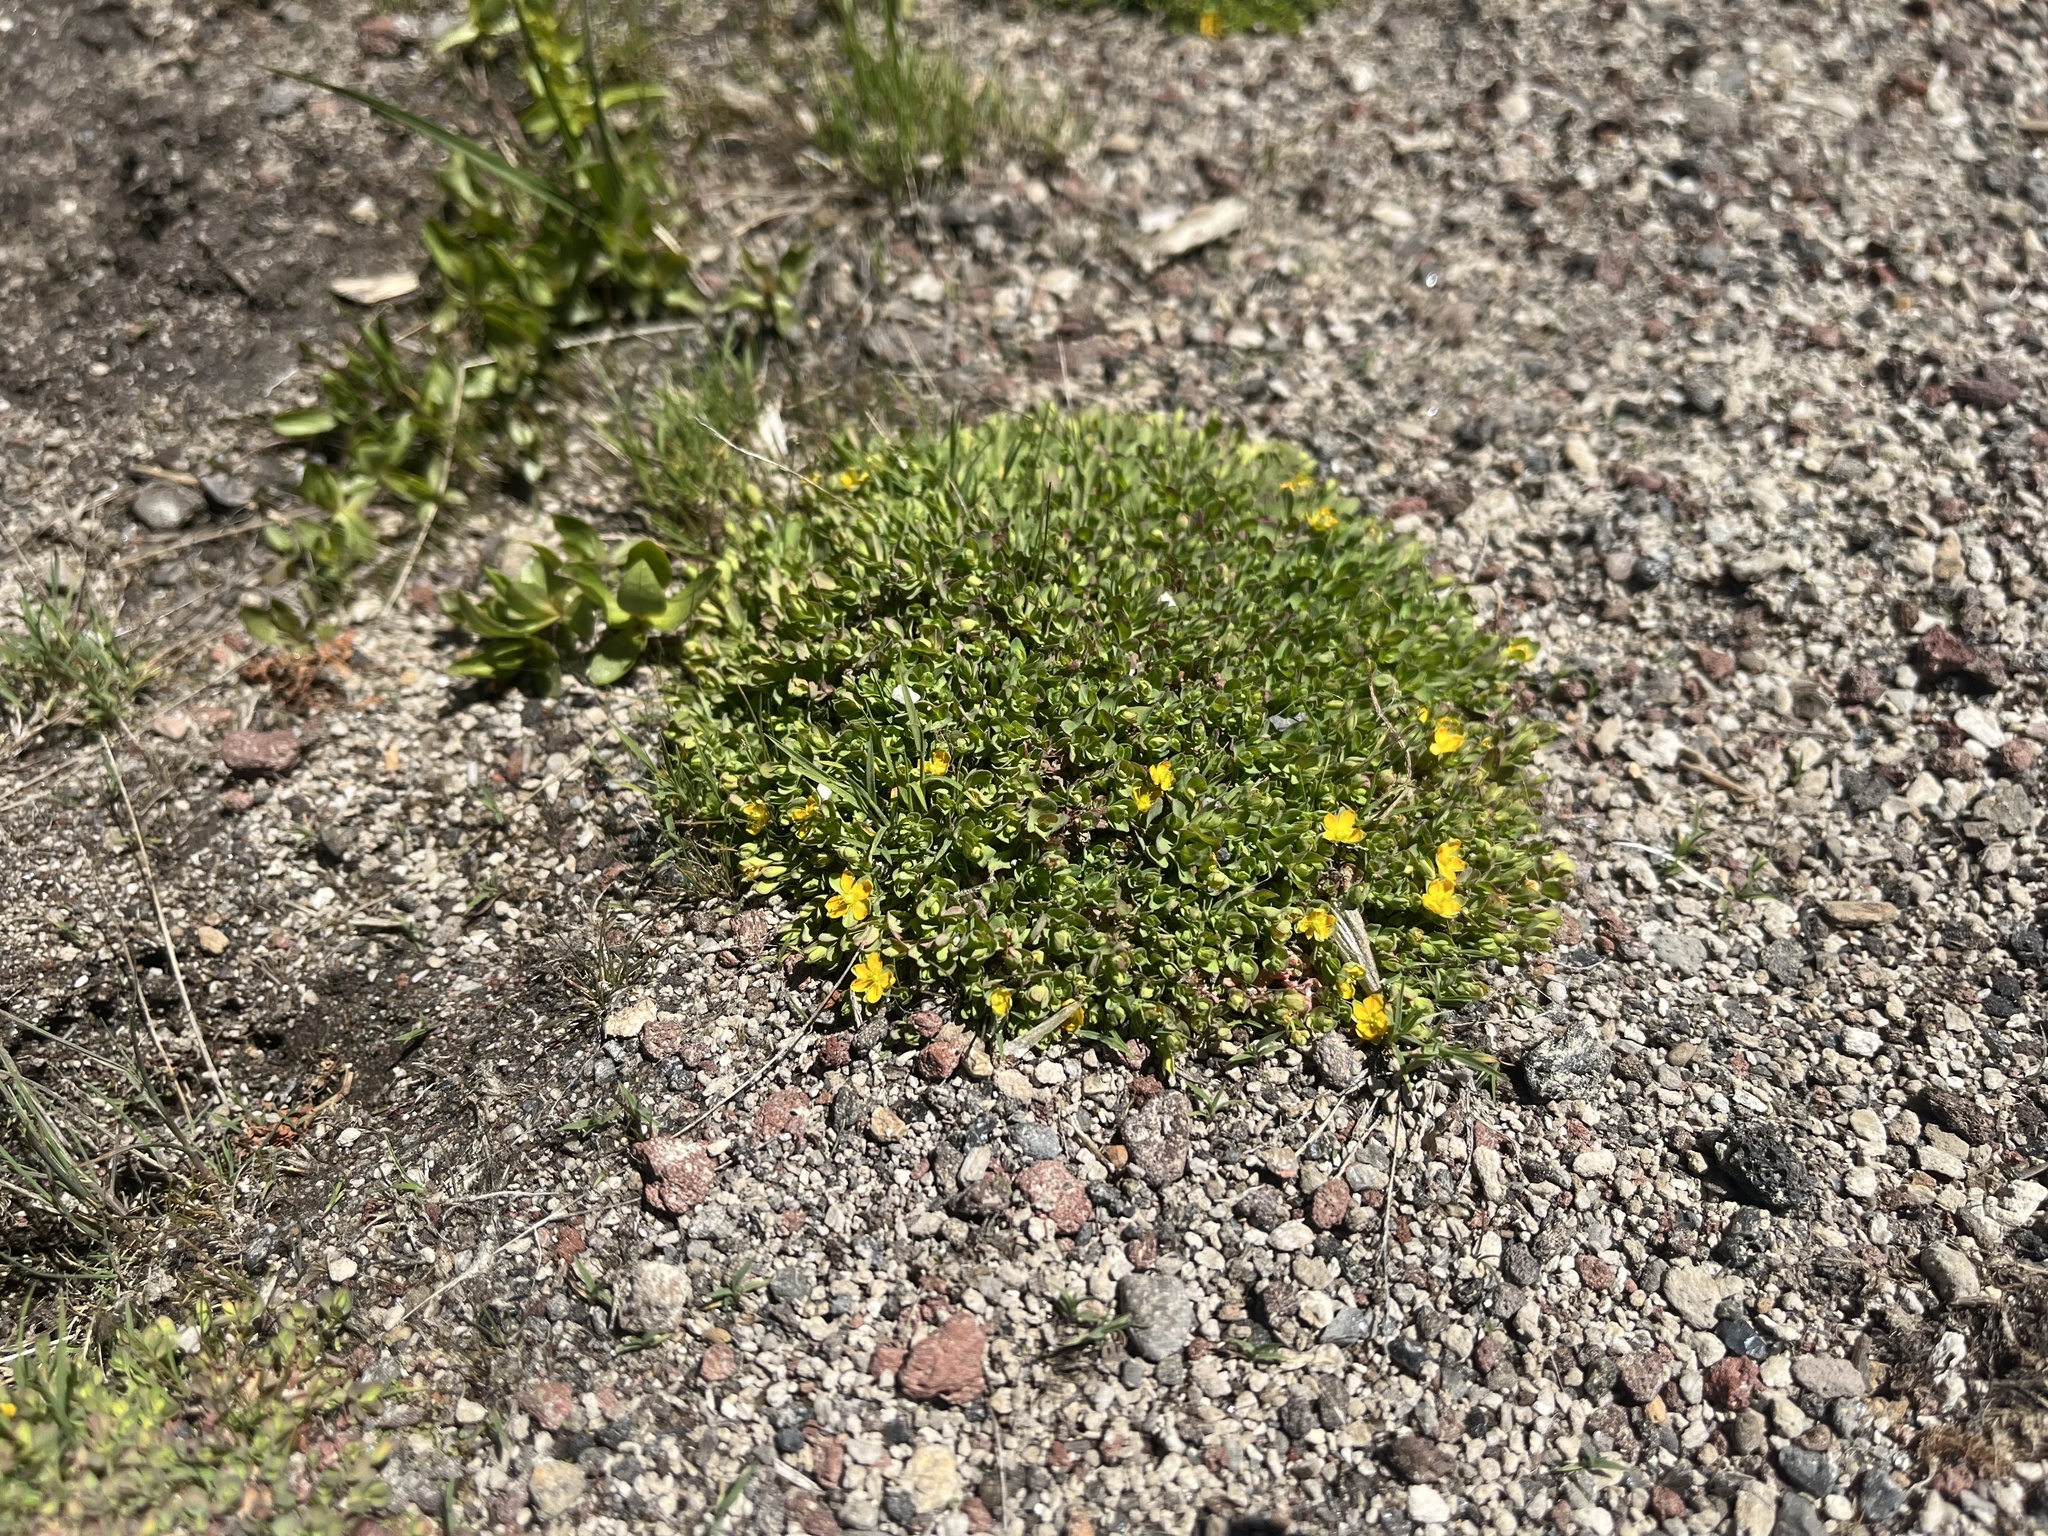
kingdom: Plantae
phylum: Tracheophyta
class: Magnoliopsida
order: Malpighiales
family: Hypericaceae
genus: Hypericum
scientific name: Hypericum anagalloides
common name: Bog st. john's-wort
